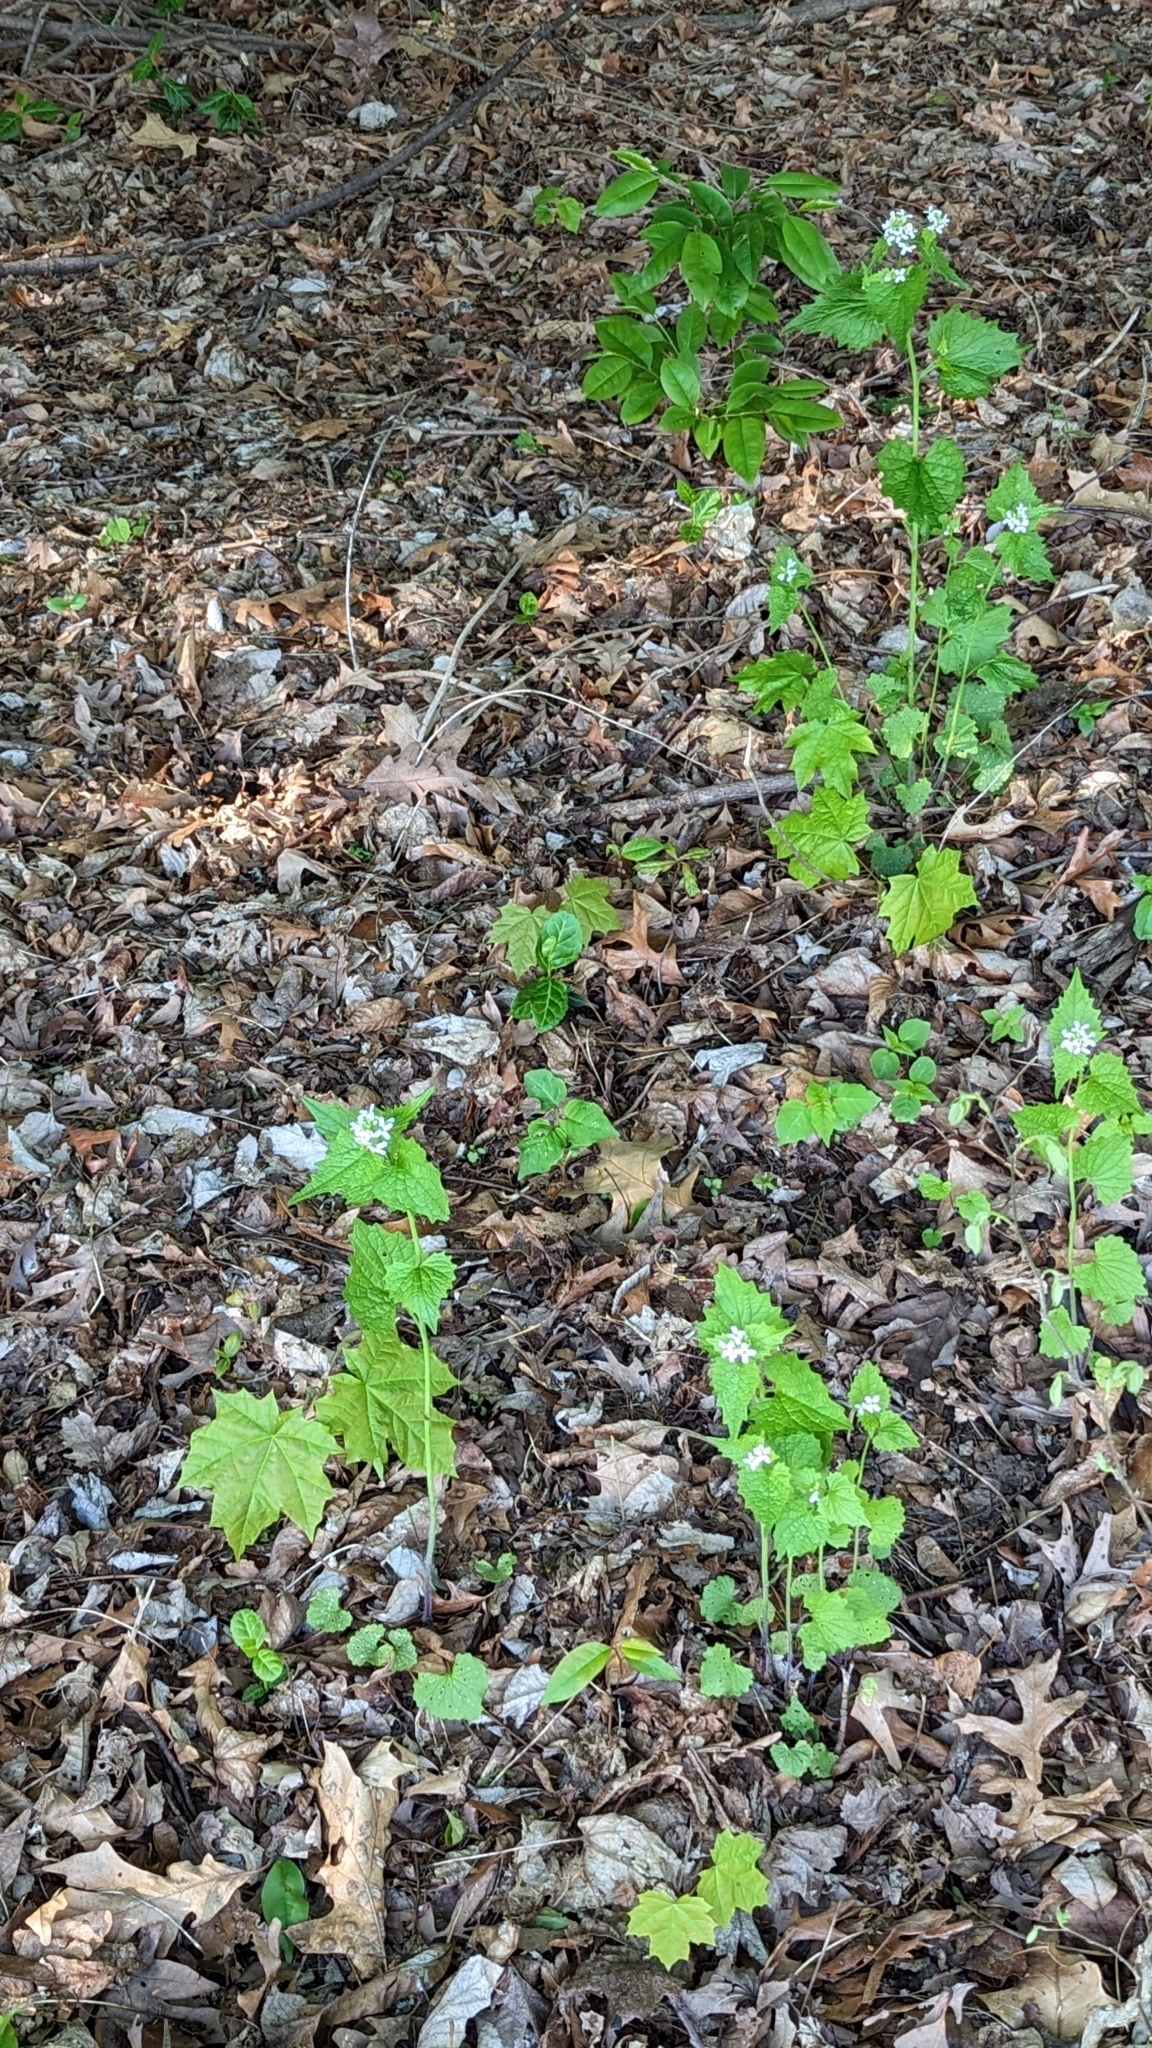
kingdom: Plantae
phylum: Tracheophyta
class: Magnoliopsida
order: Brassicales
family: Brassicaceae
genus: Alliaria
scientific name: Alliaria petiolata
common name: Garlic mustard
